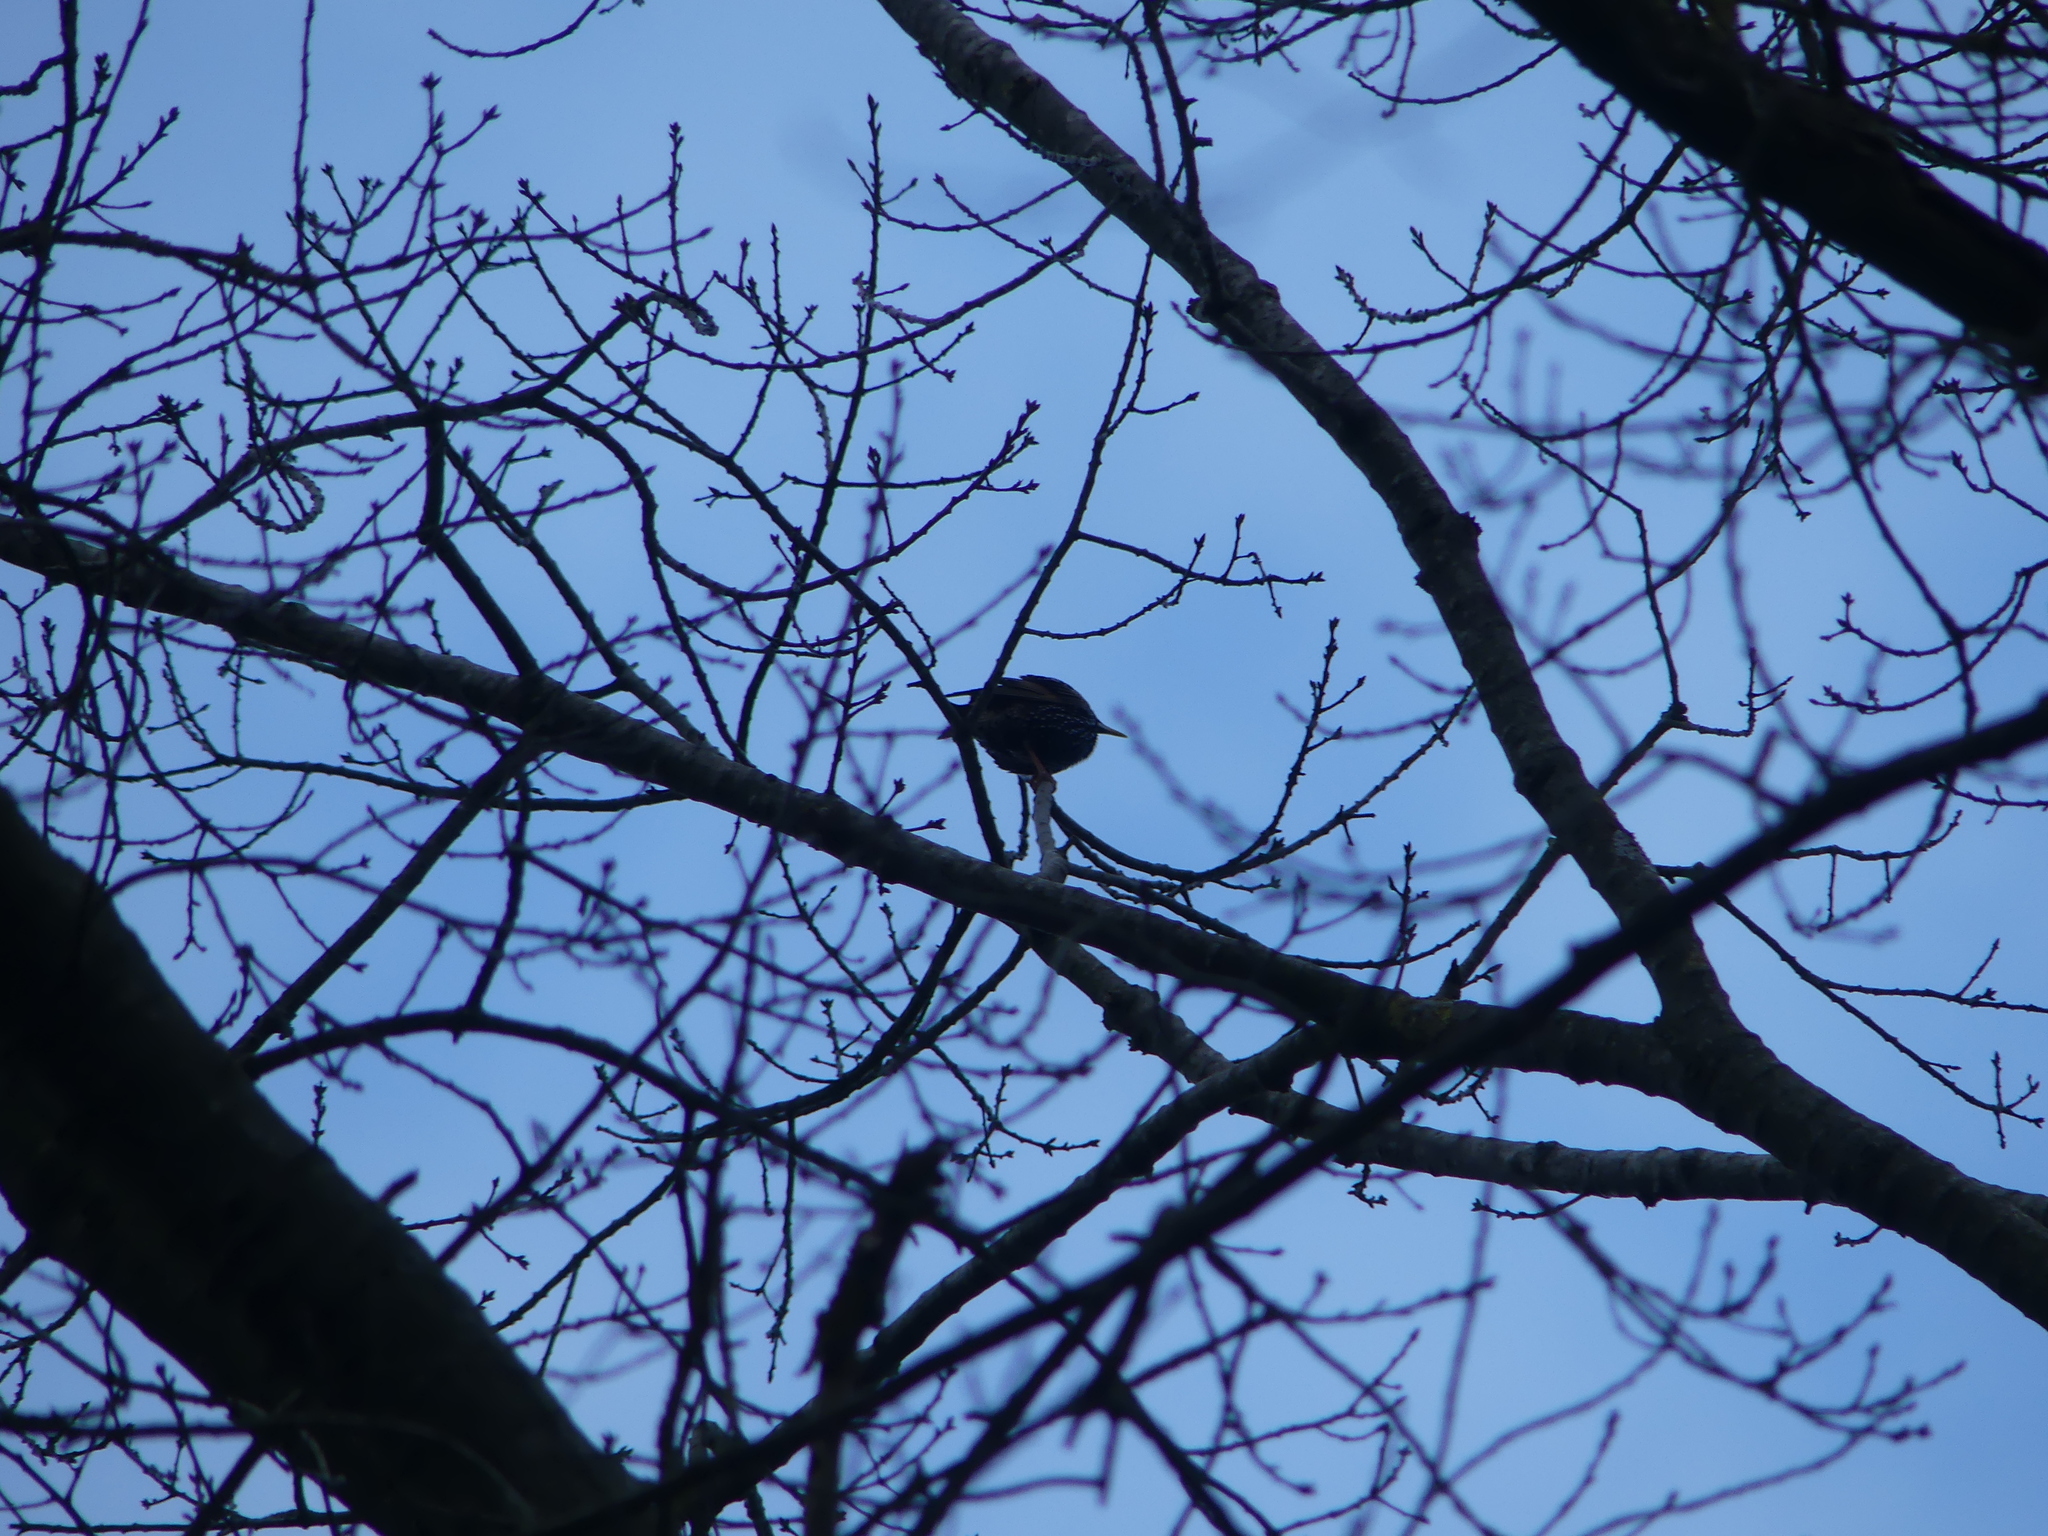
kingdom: Animalia
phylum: Chordata
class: Aves
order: Passeriformes
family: Sturnidae
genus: Sturnus
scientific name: Sturnus vulgaris
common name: Common starling
